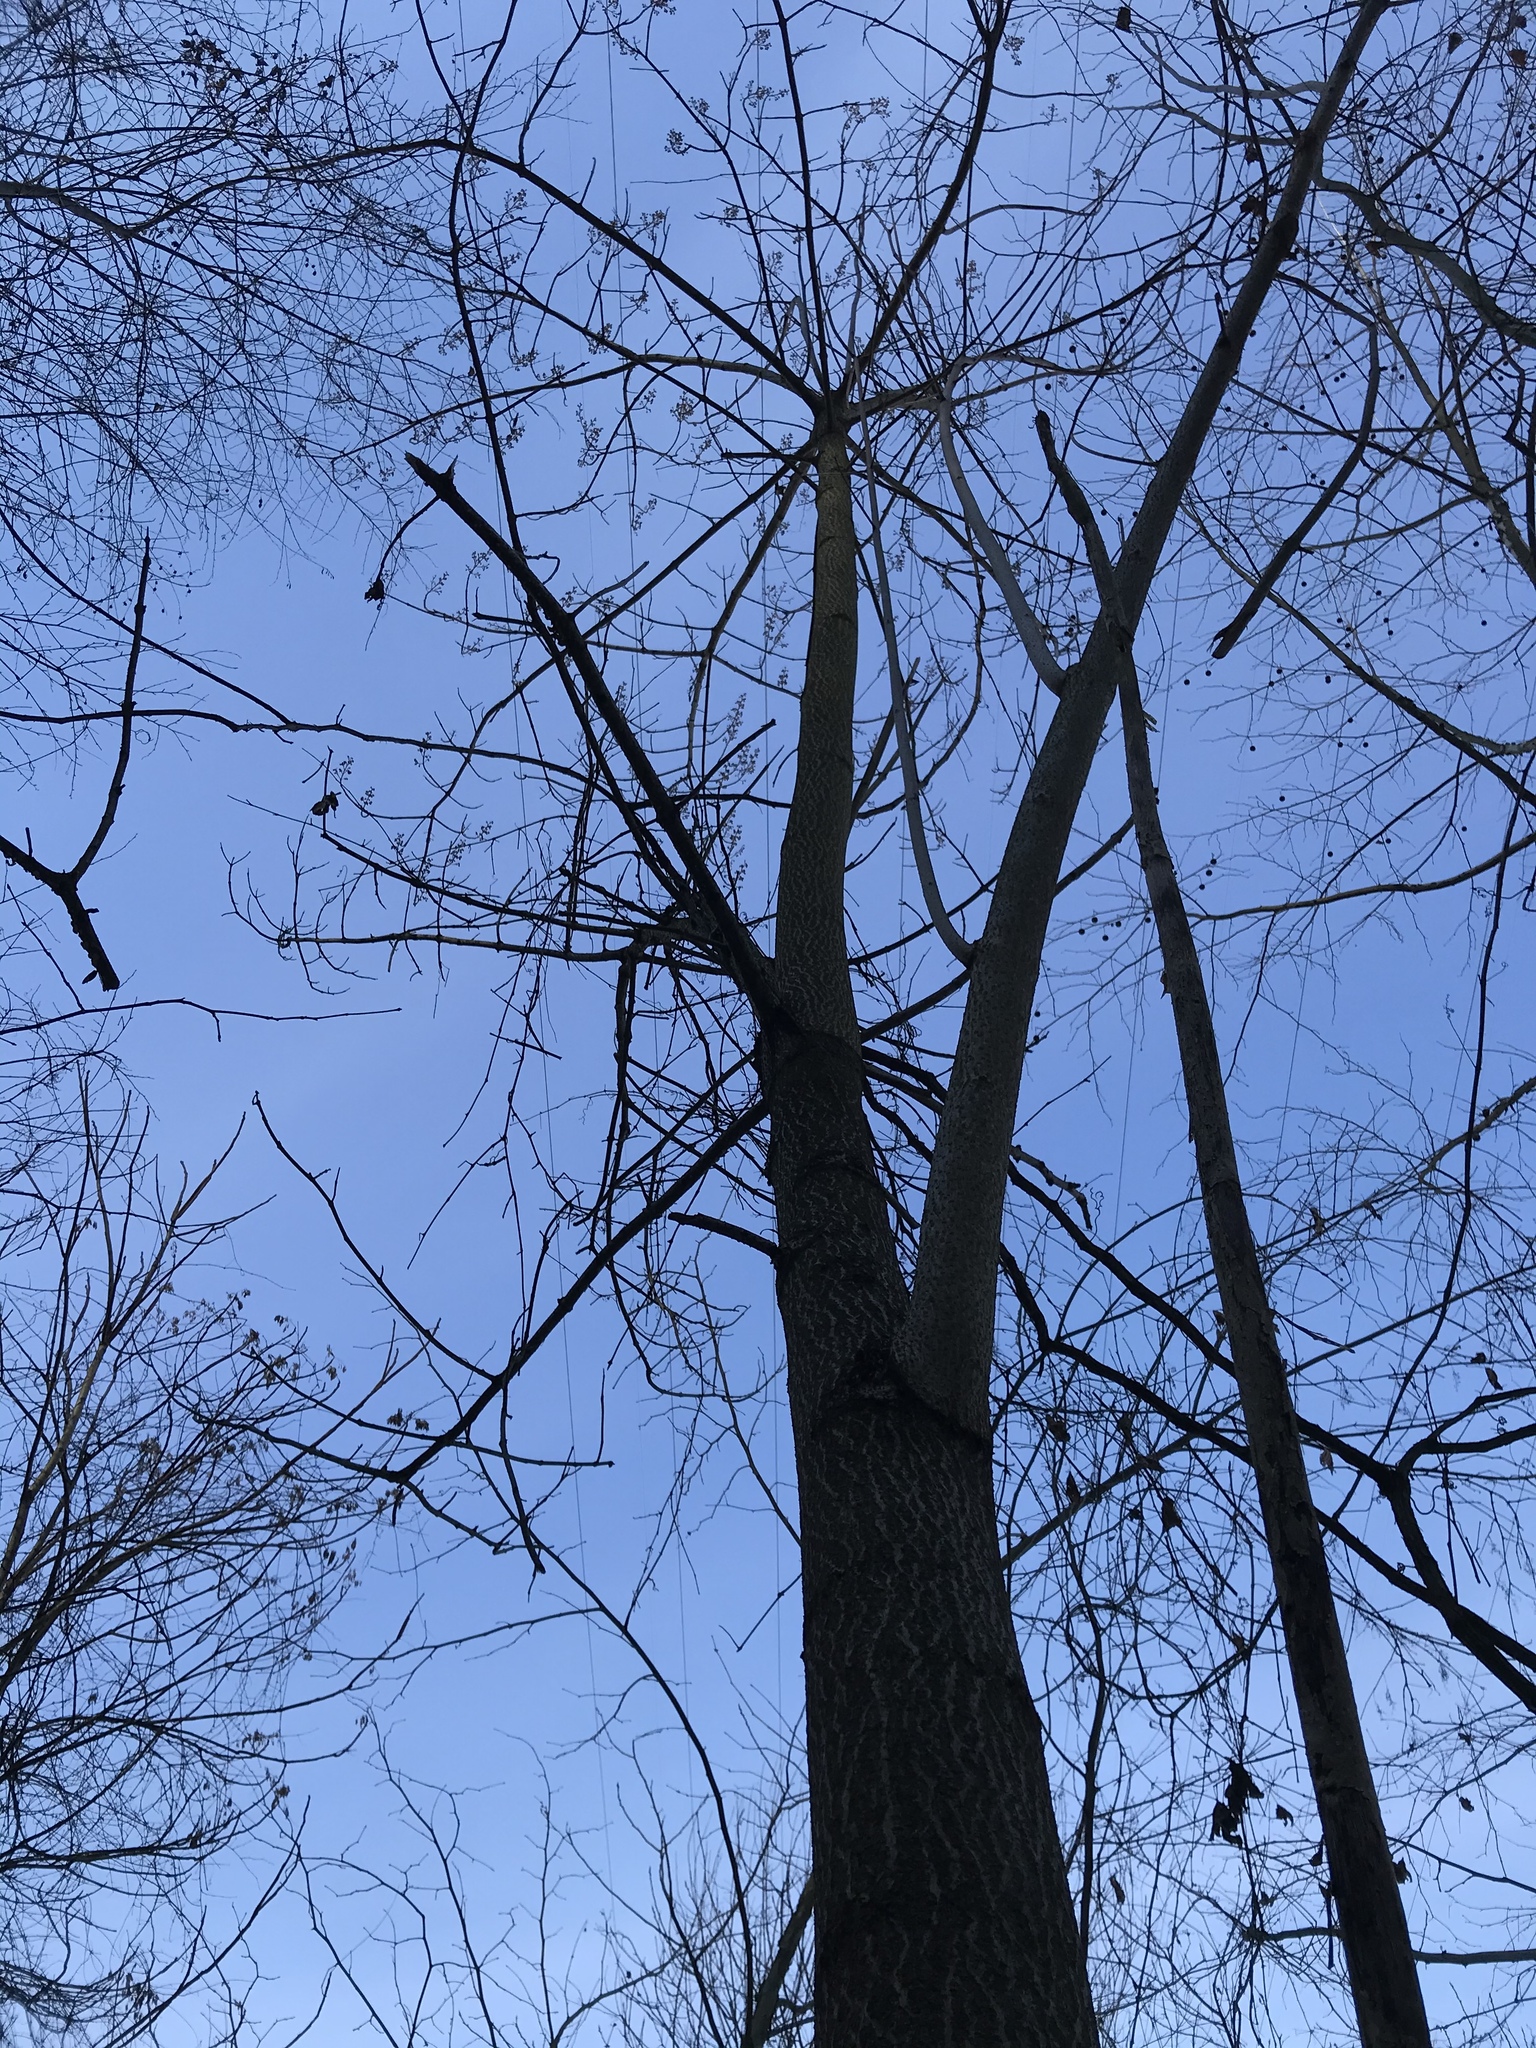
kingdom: Plantae
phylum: Tracheophyta
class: Magnoliopsida
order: Lamiales
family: Paulowniaceae
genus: Paulownia
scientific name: Paulownia tomentosa
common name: Foxglove-tree
